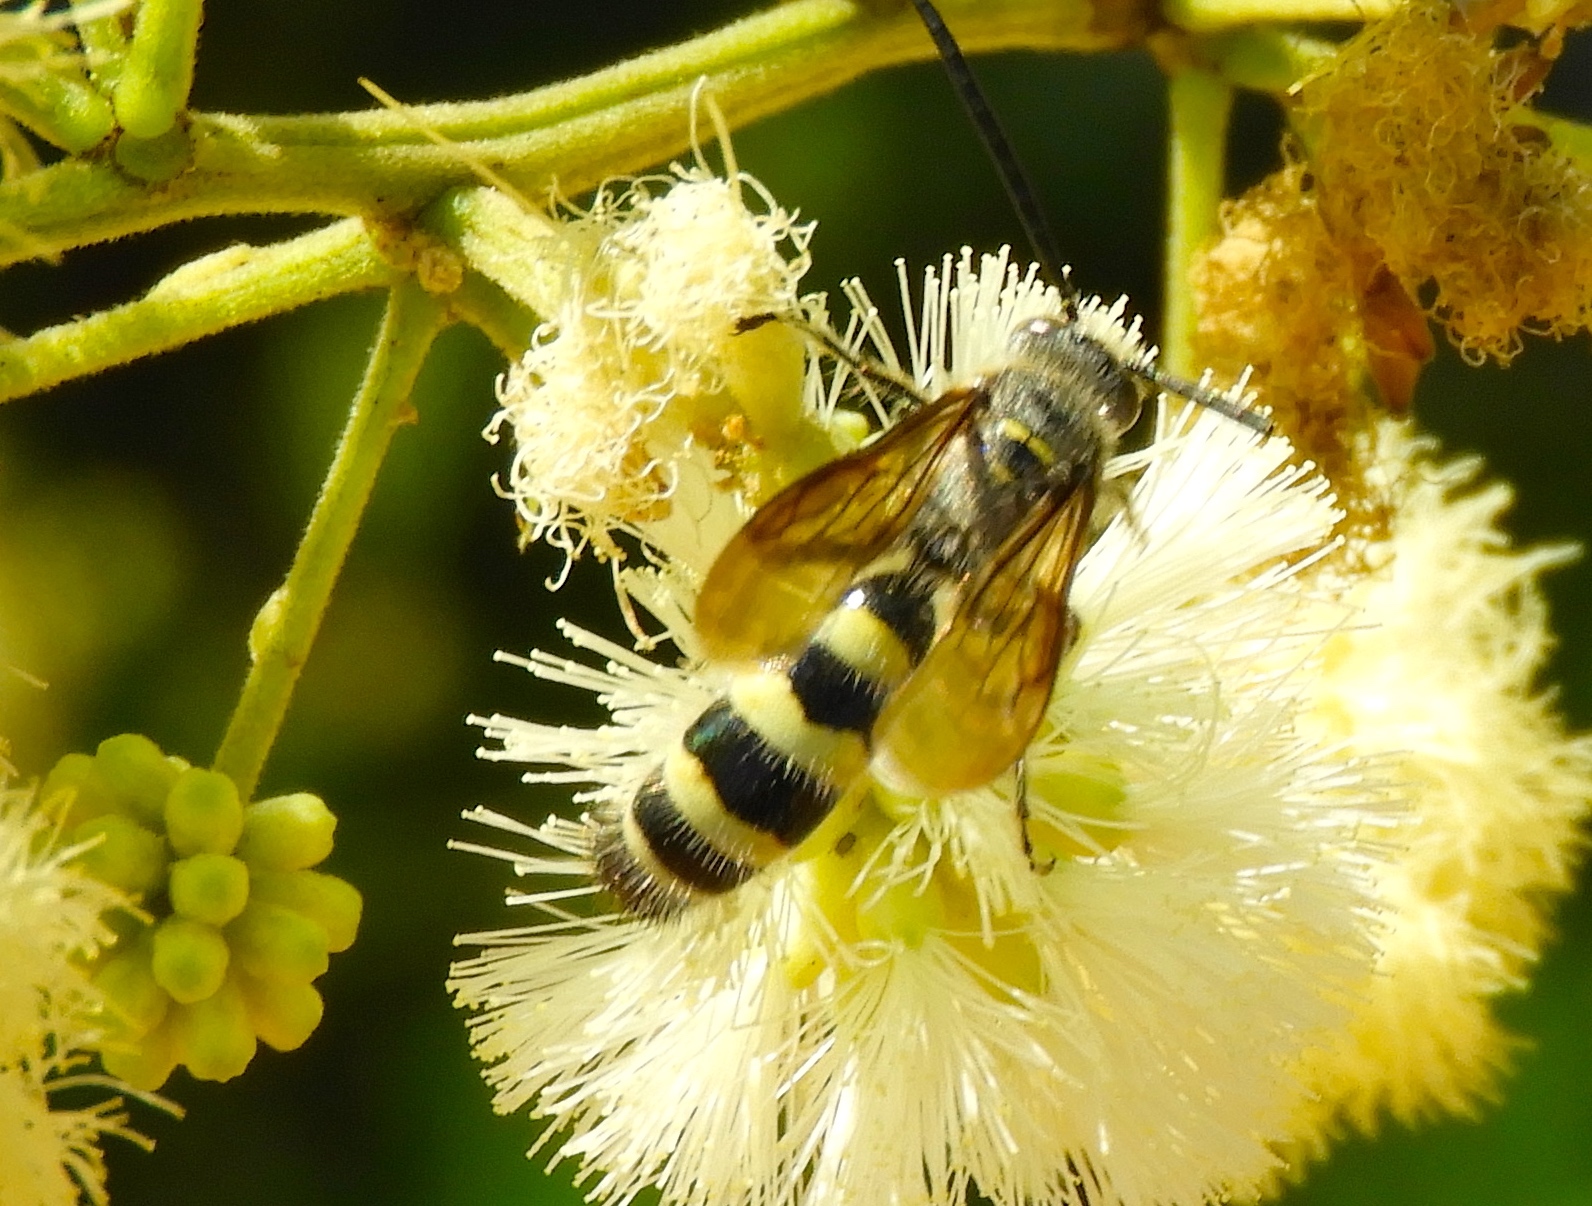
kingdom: Animalia
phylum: Arthropoda
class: Insecta
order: Hymenoptera
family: Scoliidae
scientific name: Scoliidae
